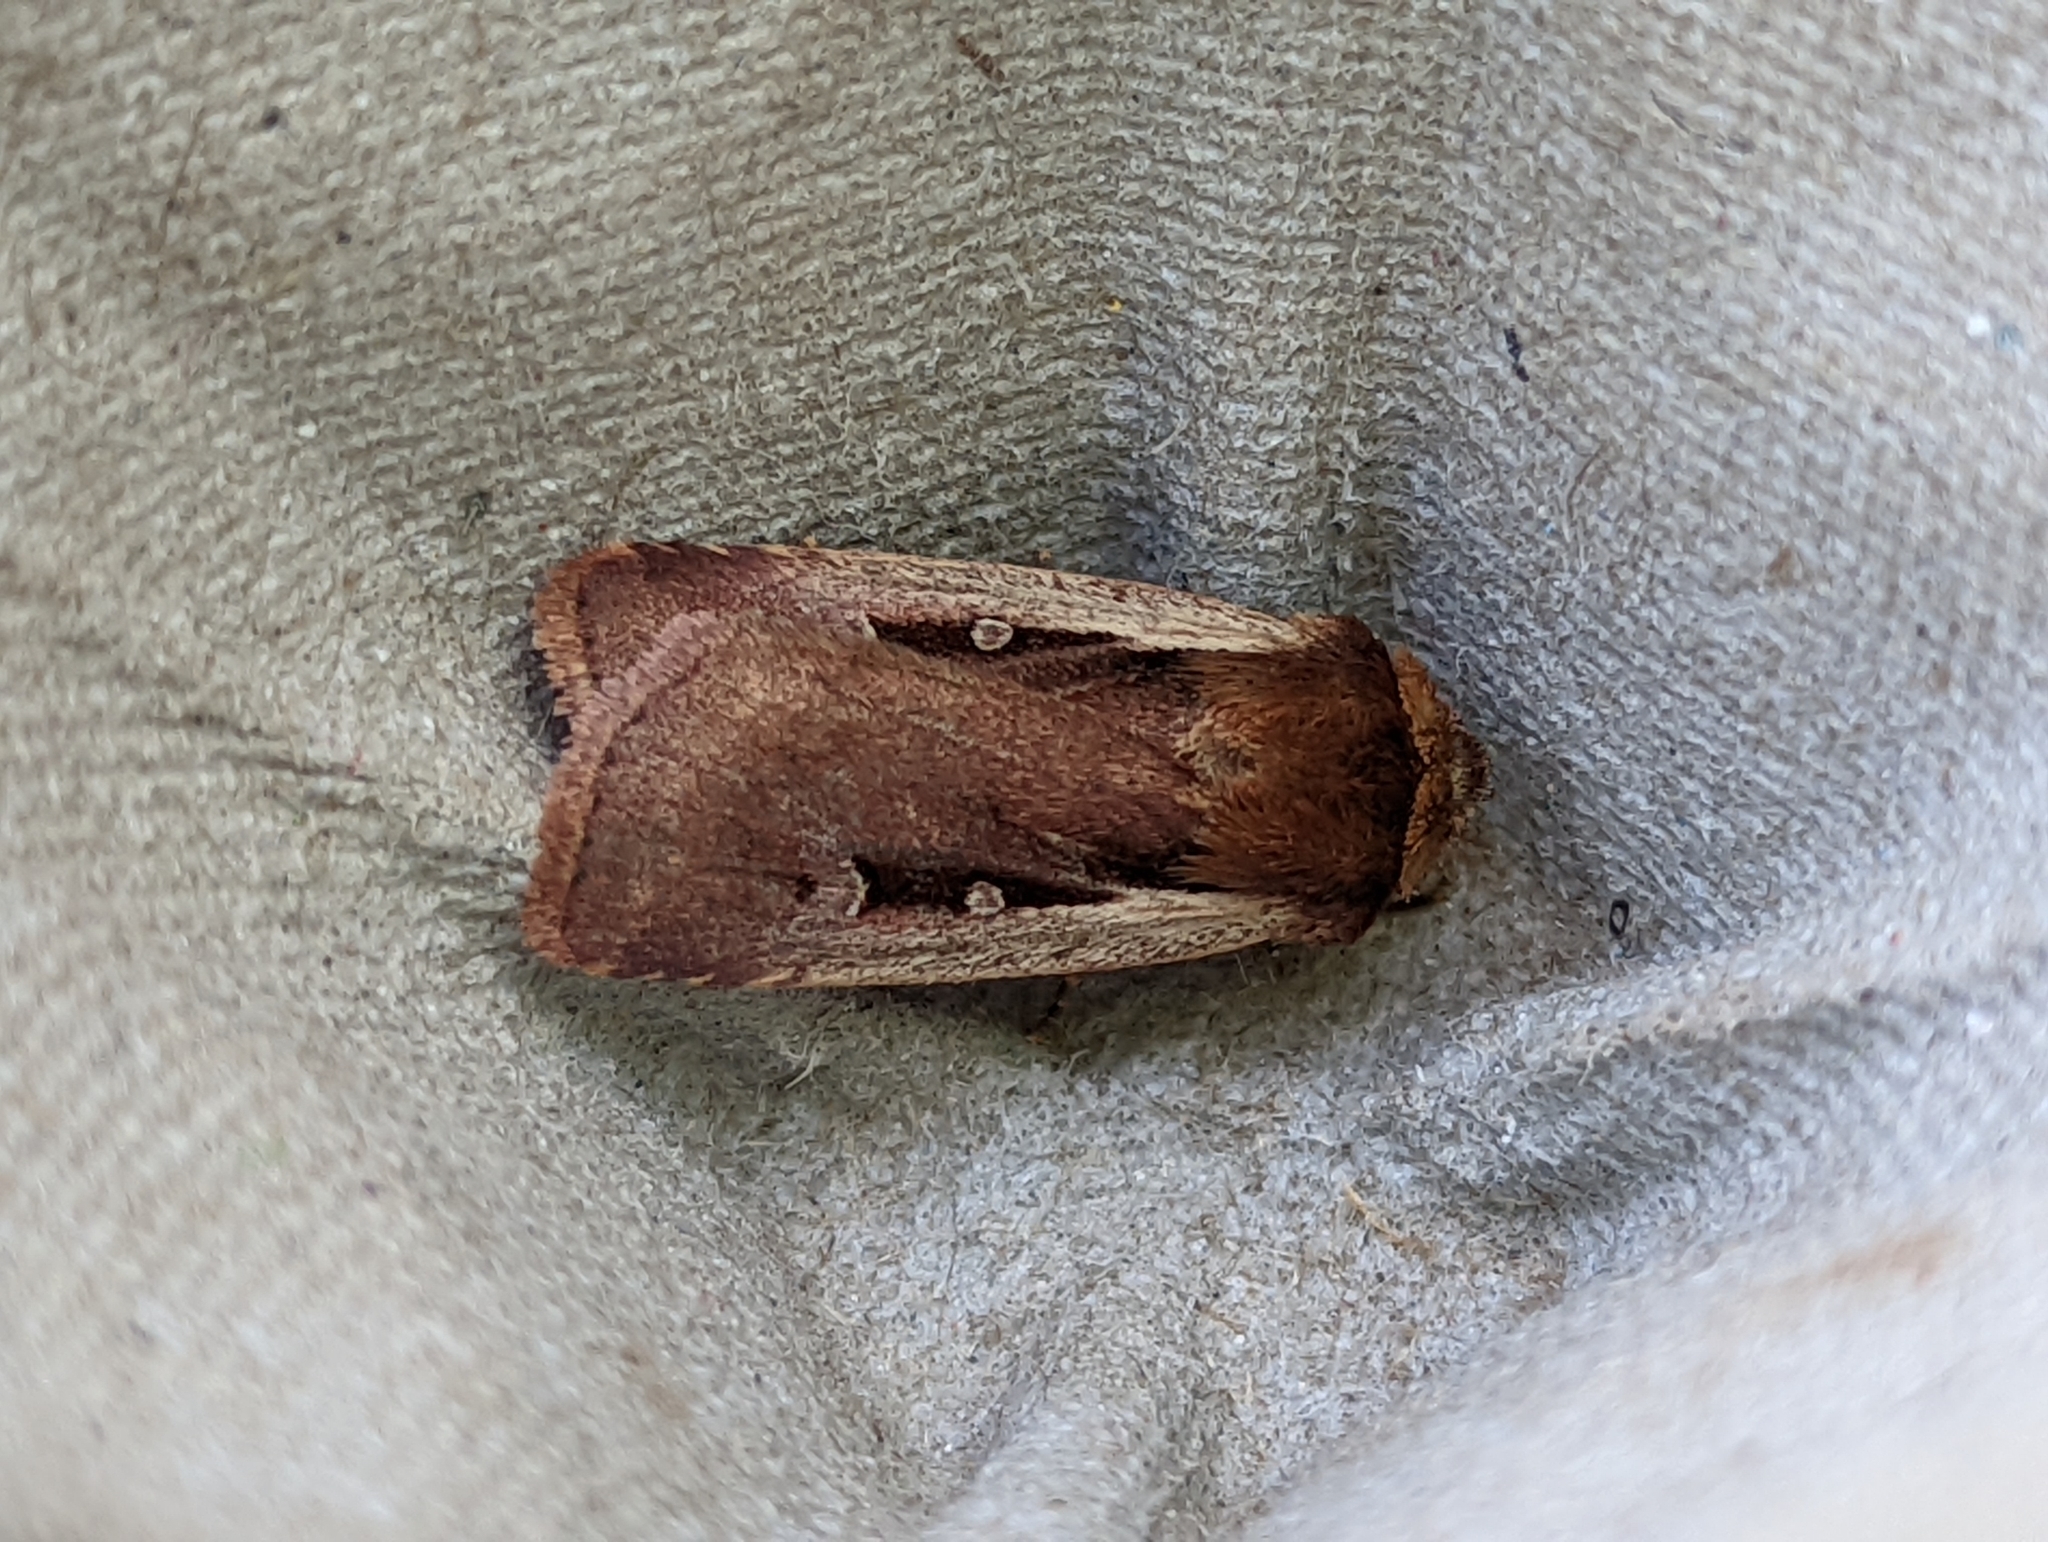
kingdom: Animalia
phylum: Arthropoda
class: Insecta
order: Lepidoptera
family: Noctuidae
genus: Ochropleura
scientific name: Ochropleura plecta
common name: Flame shoulder
